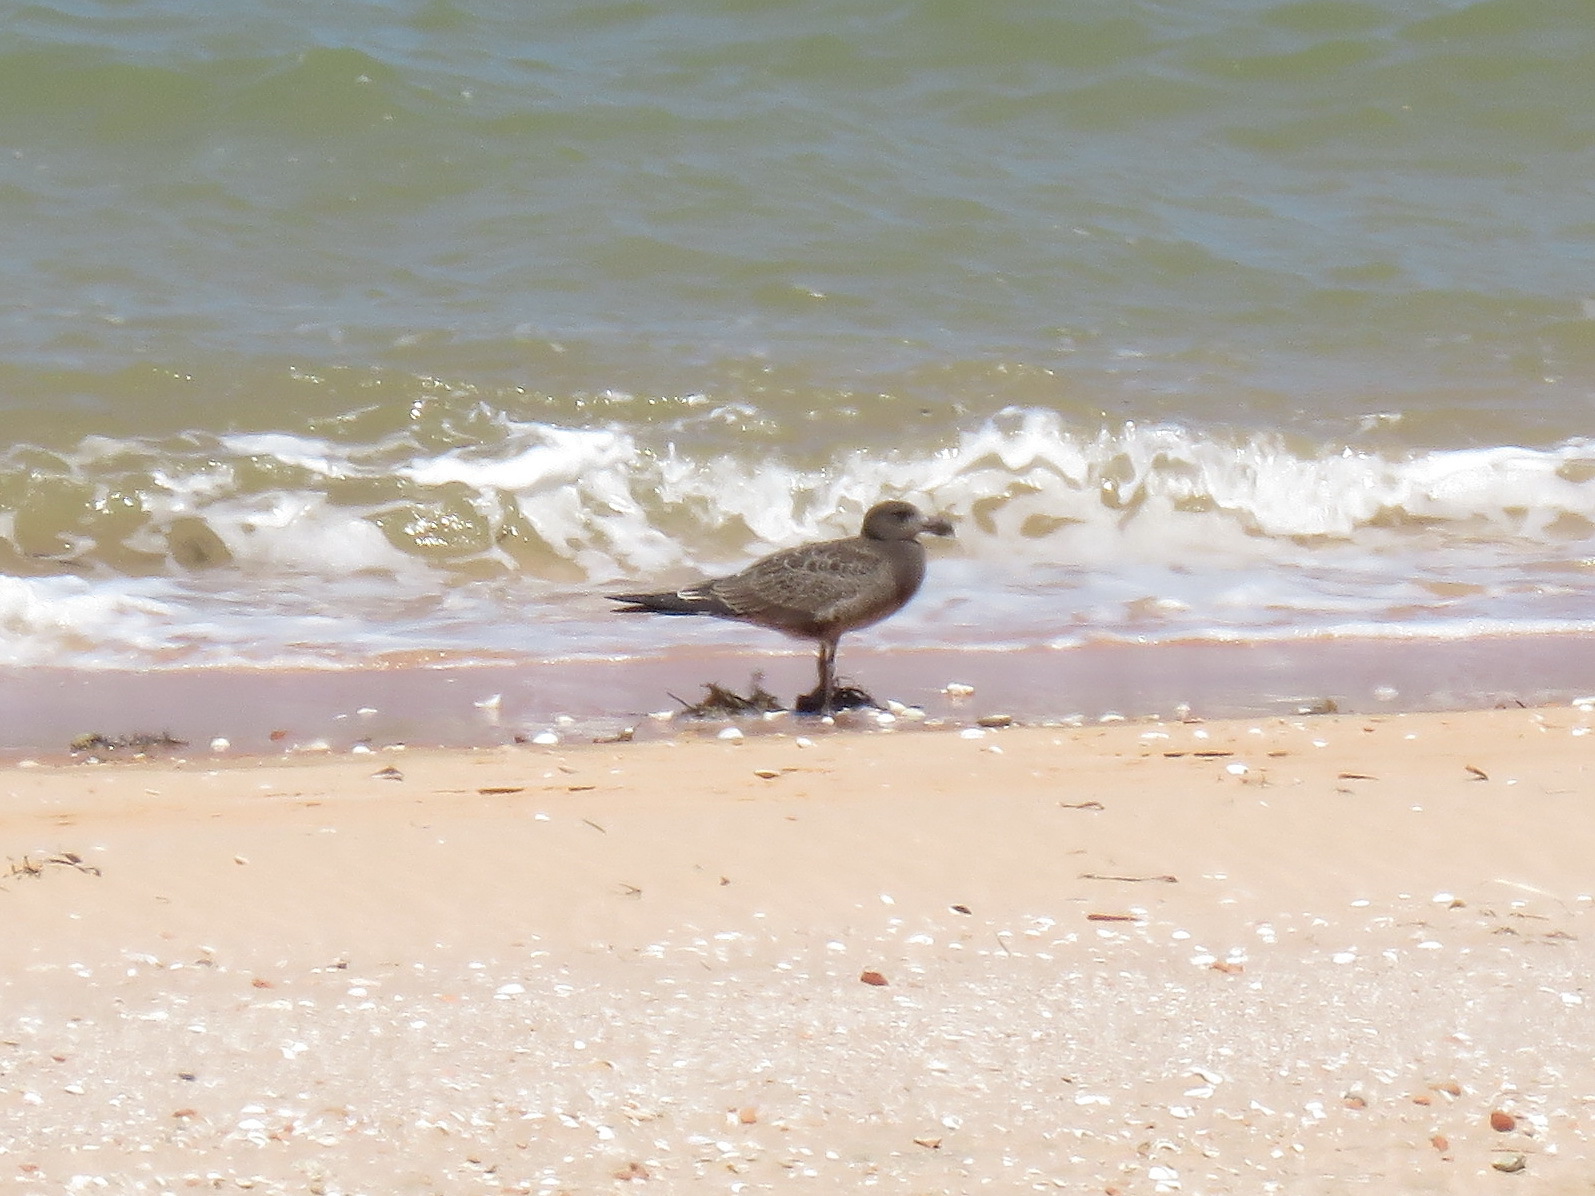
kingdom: Animalia
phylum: Chordata
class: Aves
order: Charadriiformes
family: Laridae
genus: Larus
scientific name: Larus pacificus
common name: Pacific gull
